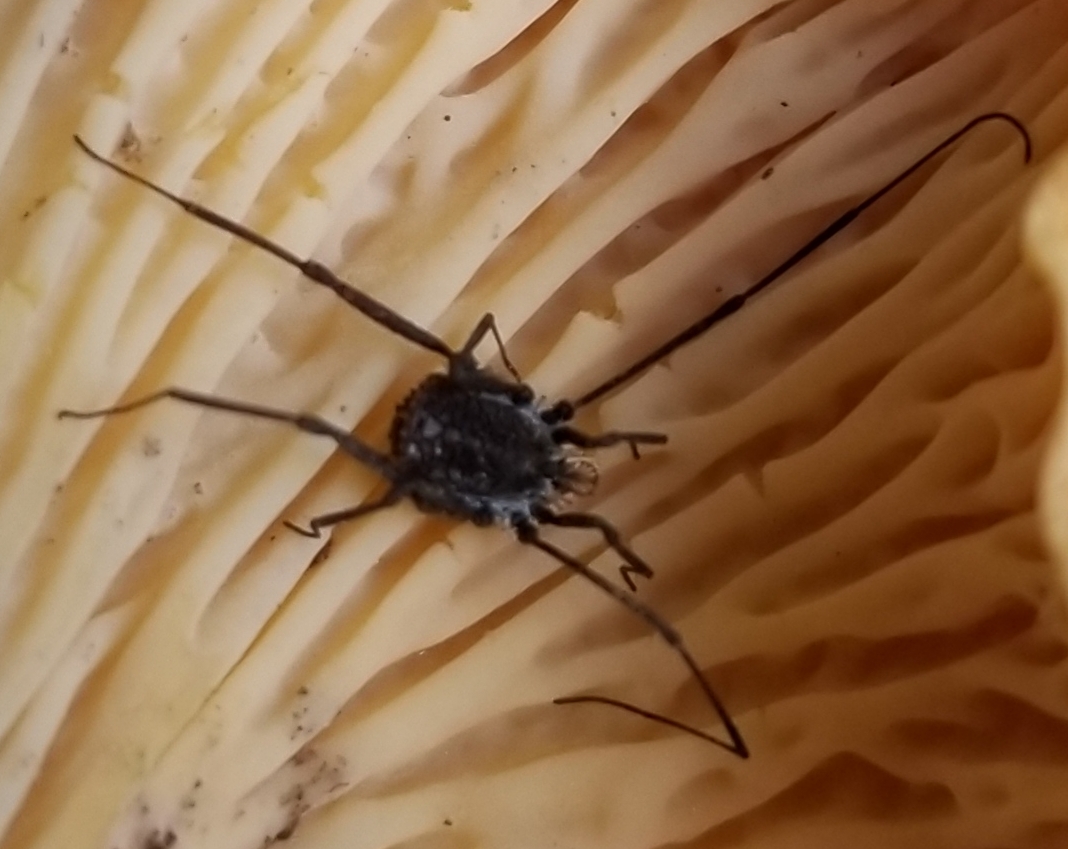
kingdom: Animalia
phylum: Arthropoda
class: Arachnida
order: Opiliones
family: Nemastomatidae
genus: Ortholasma
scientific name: Ortholasma rugosum
